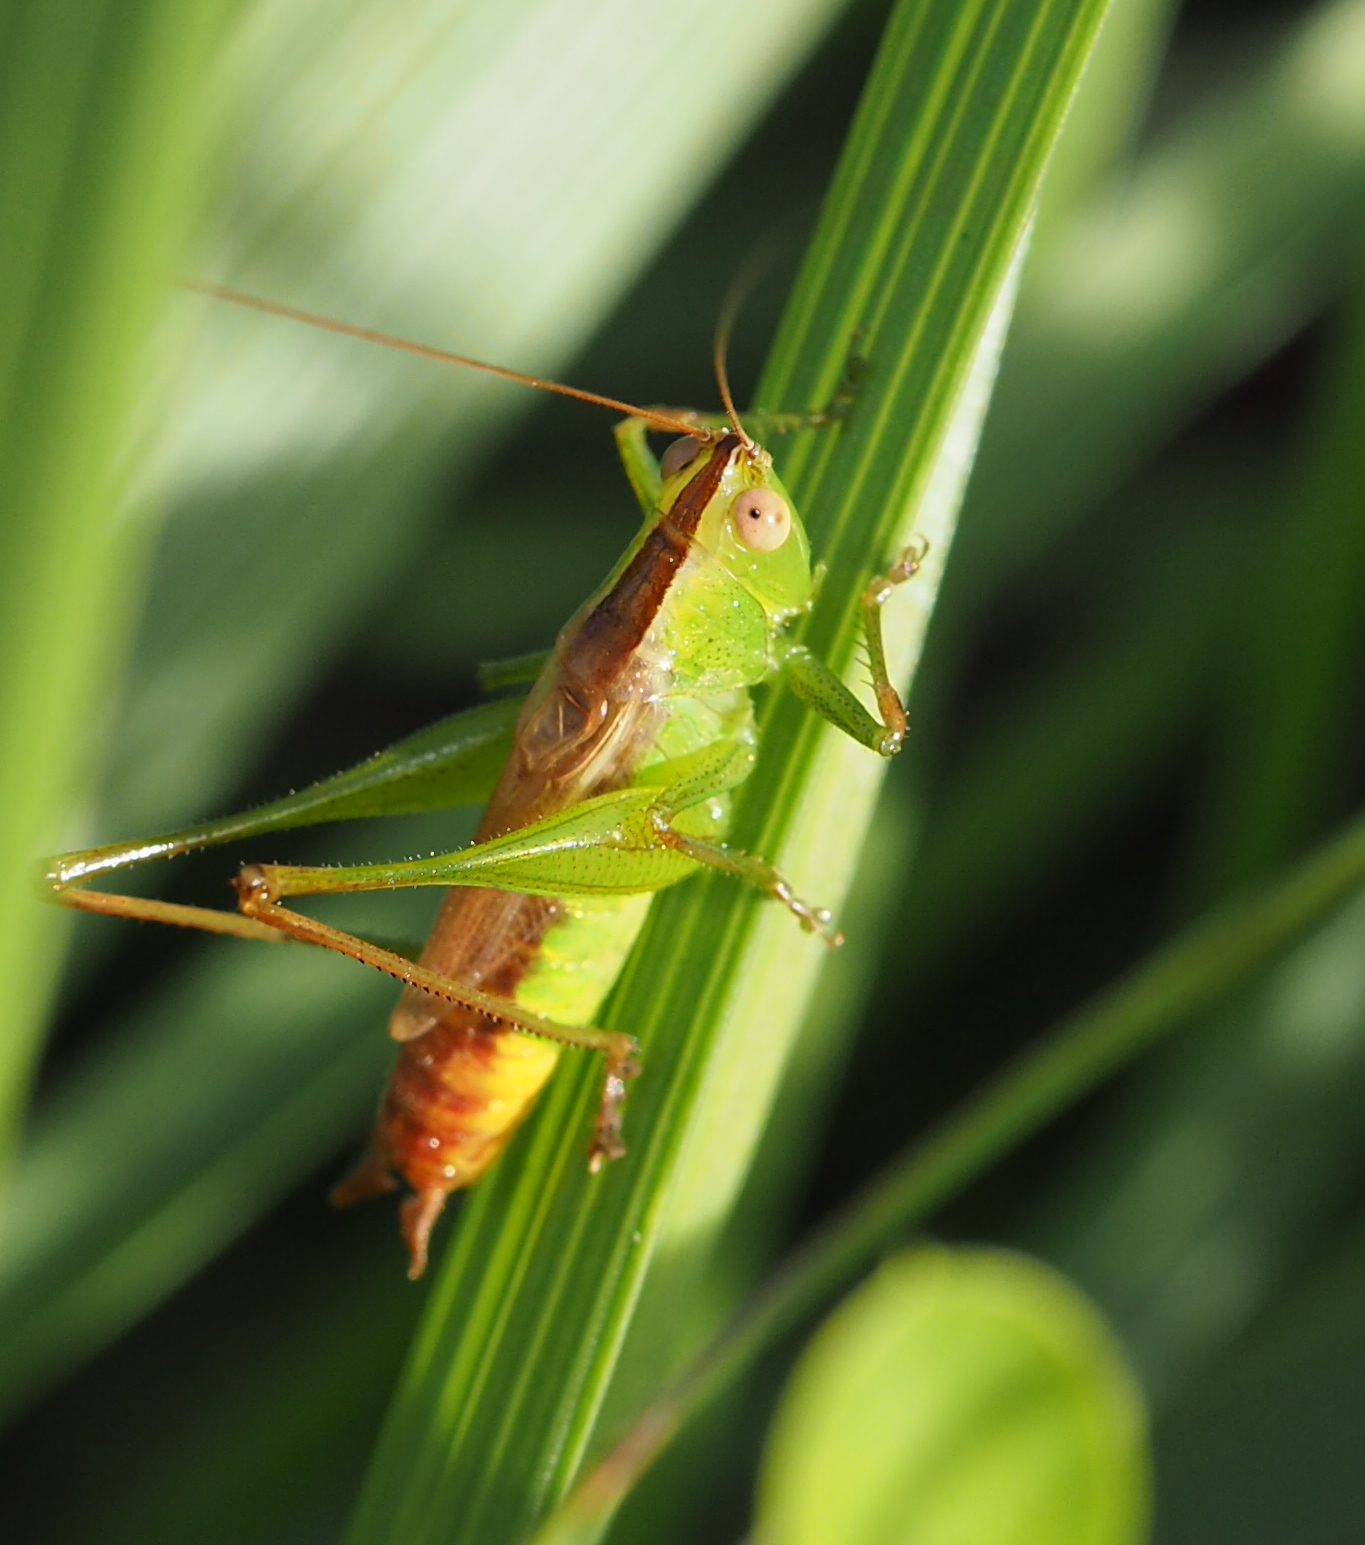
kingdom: Animalia
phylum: Arthropoda
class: Insecta
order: Orthoptera
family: Tettigoniidae
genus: Conocephalus
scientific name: Conocephalus brevipennis
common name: Short-winged meadow katydid
